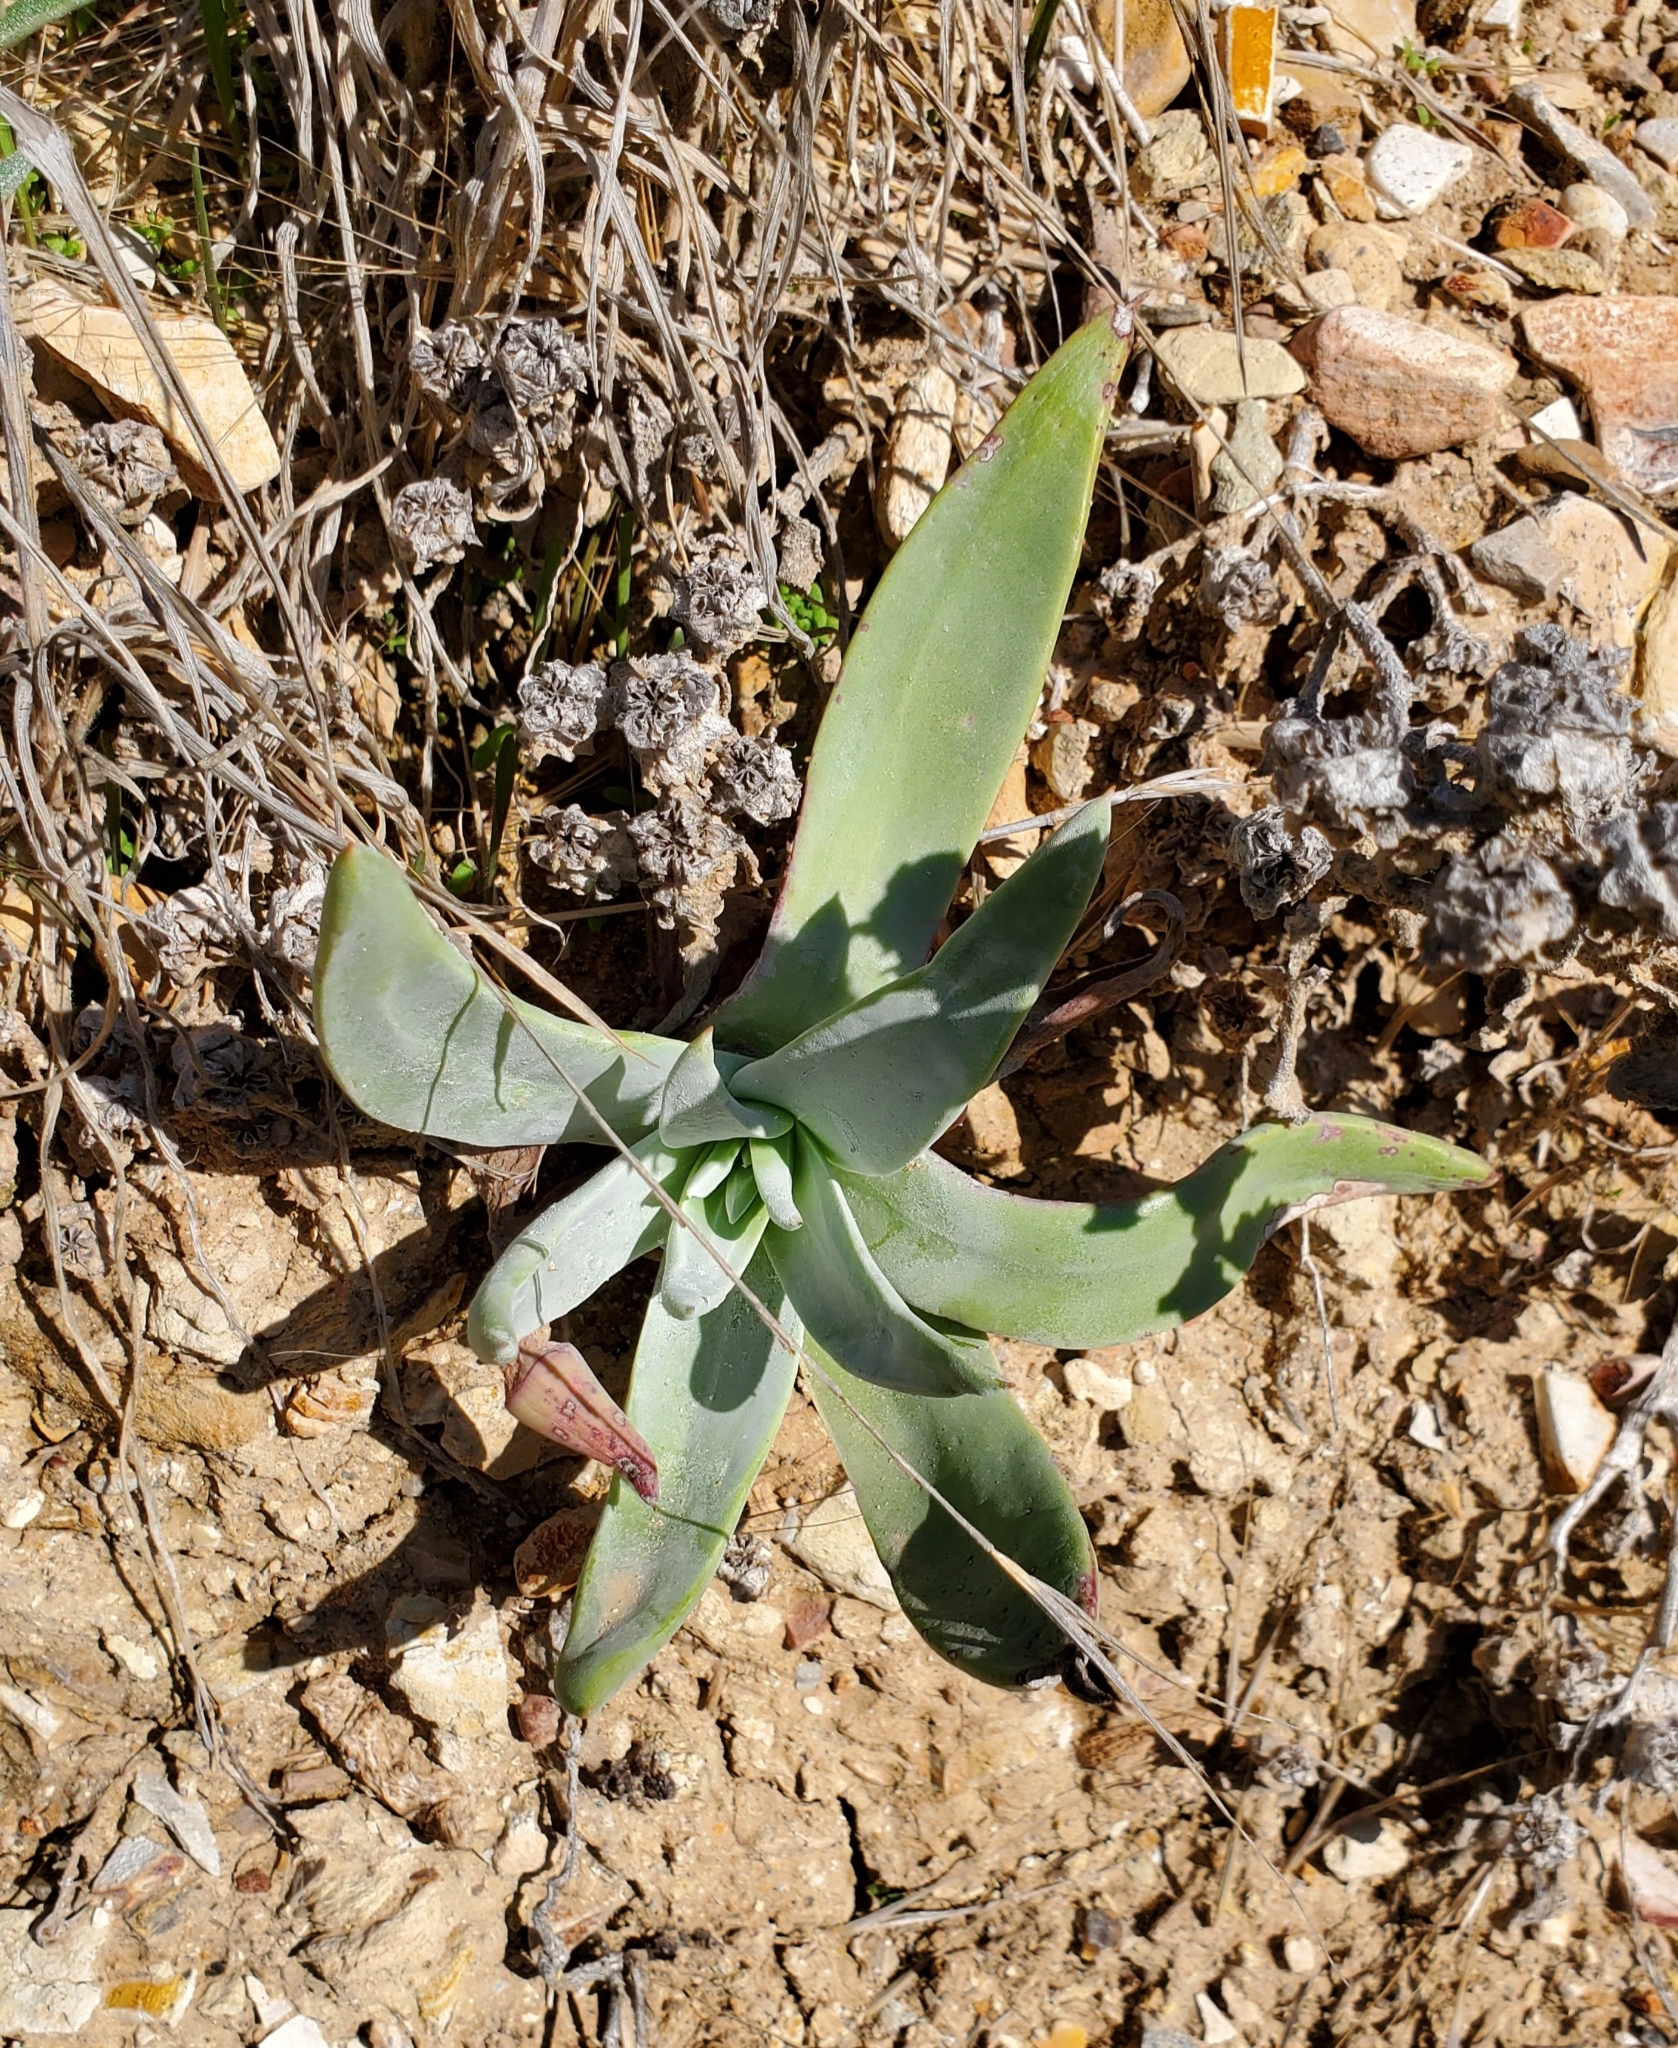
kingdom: Plantae
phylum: Tracheophyta
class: Magnoliopsida
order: Saxifragales
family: Crassulaceae
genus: Dudleya
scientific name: Dudleya lanceolata
